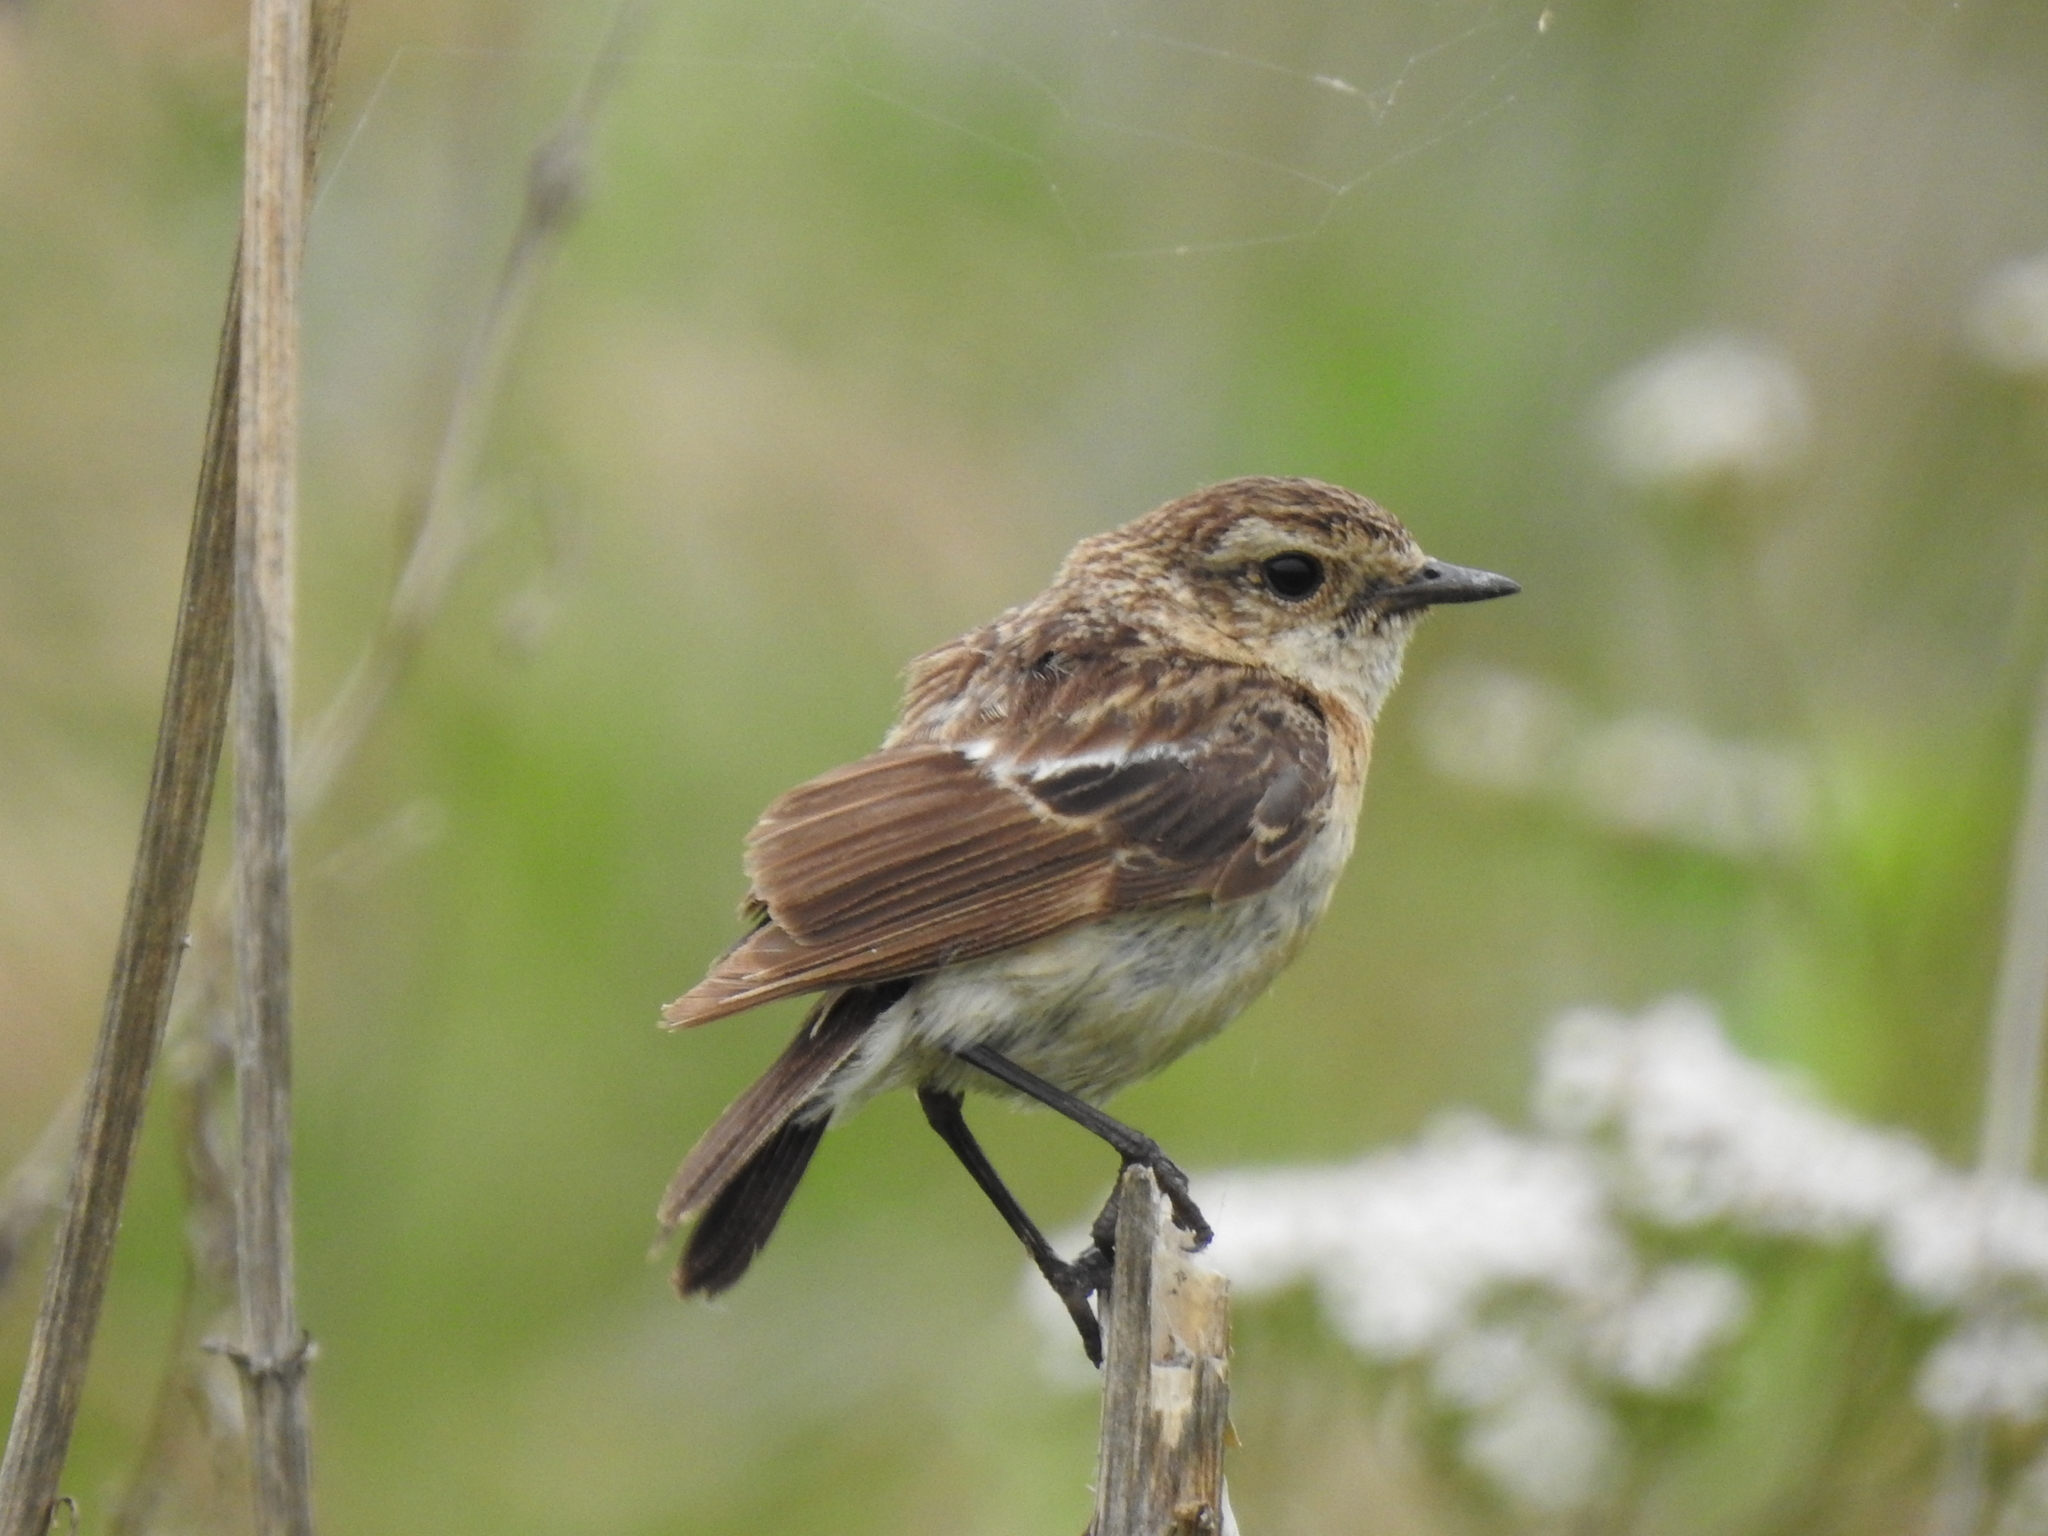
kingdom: Animalia
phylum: Chordata
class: Aves
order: Passeriformes
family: Muscicapidae
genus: Saxicola
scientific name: Saxicola maurus
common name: Siberian stonechat
